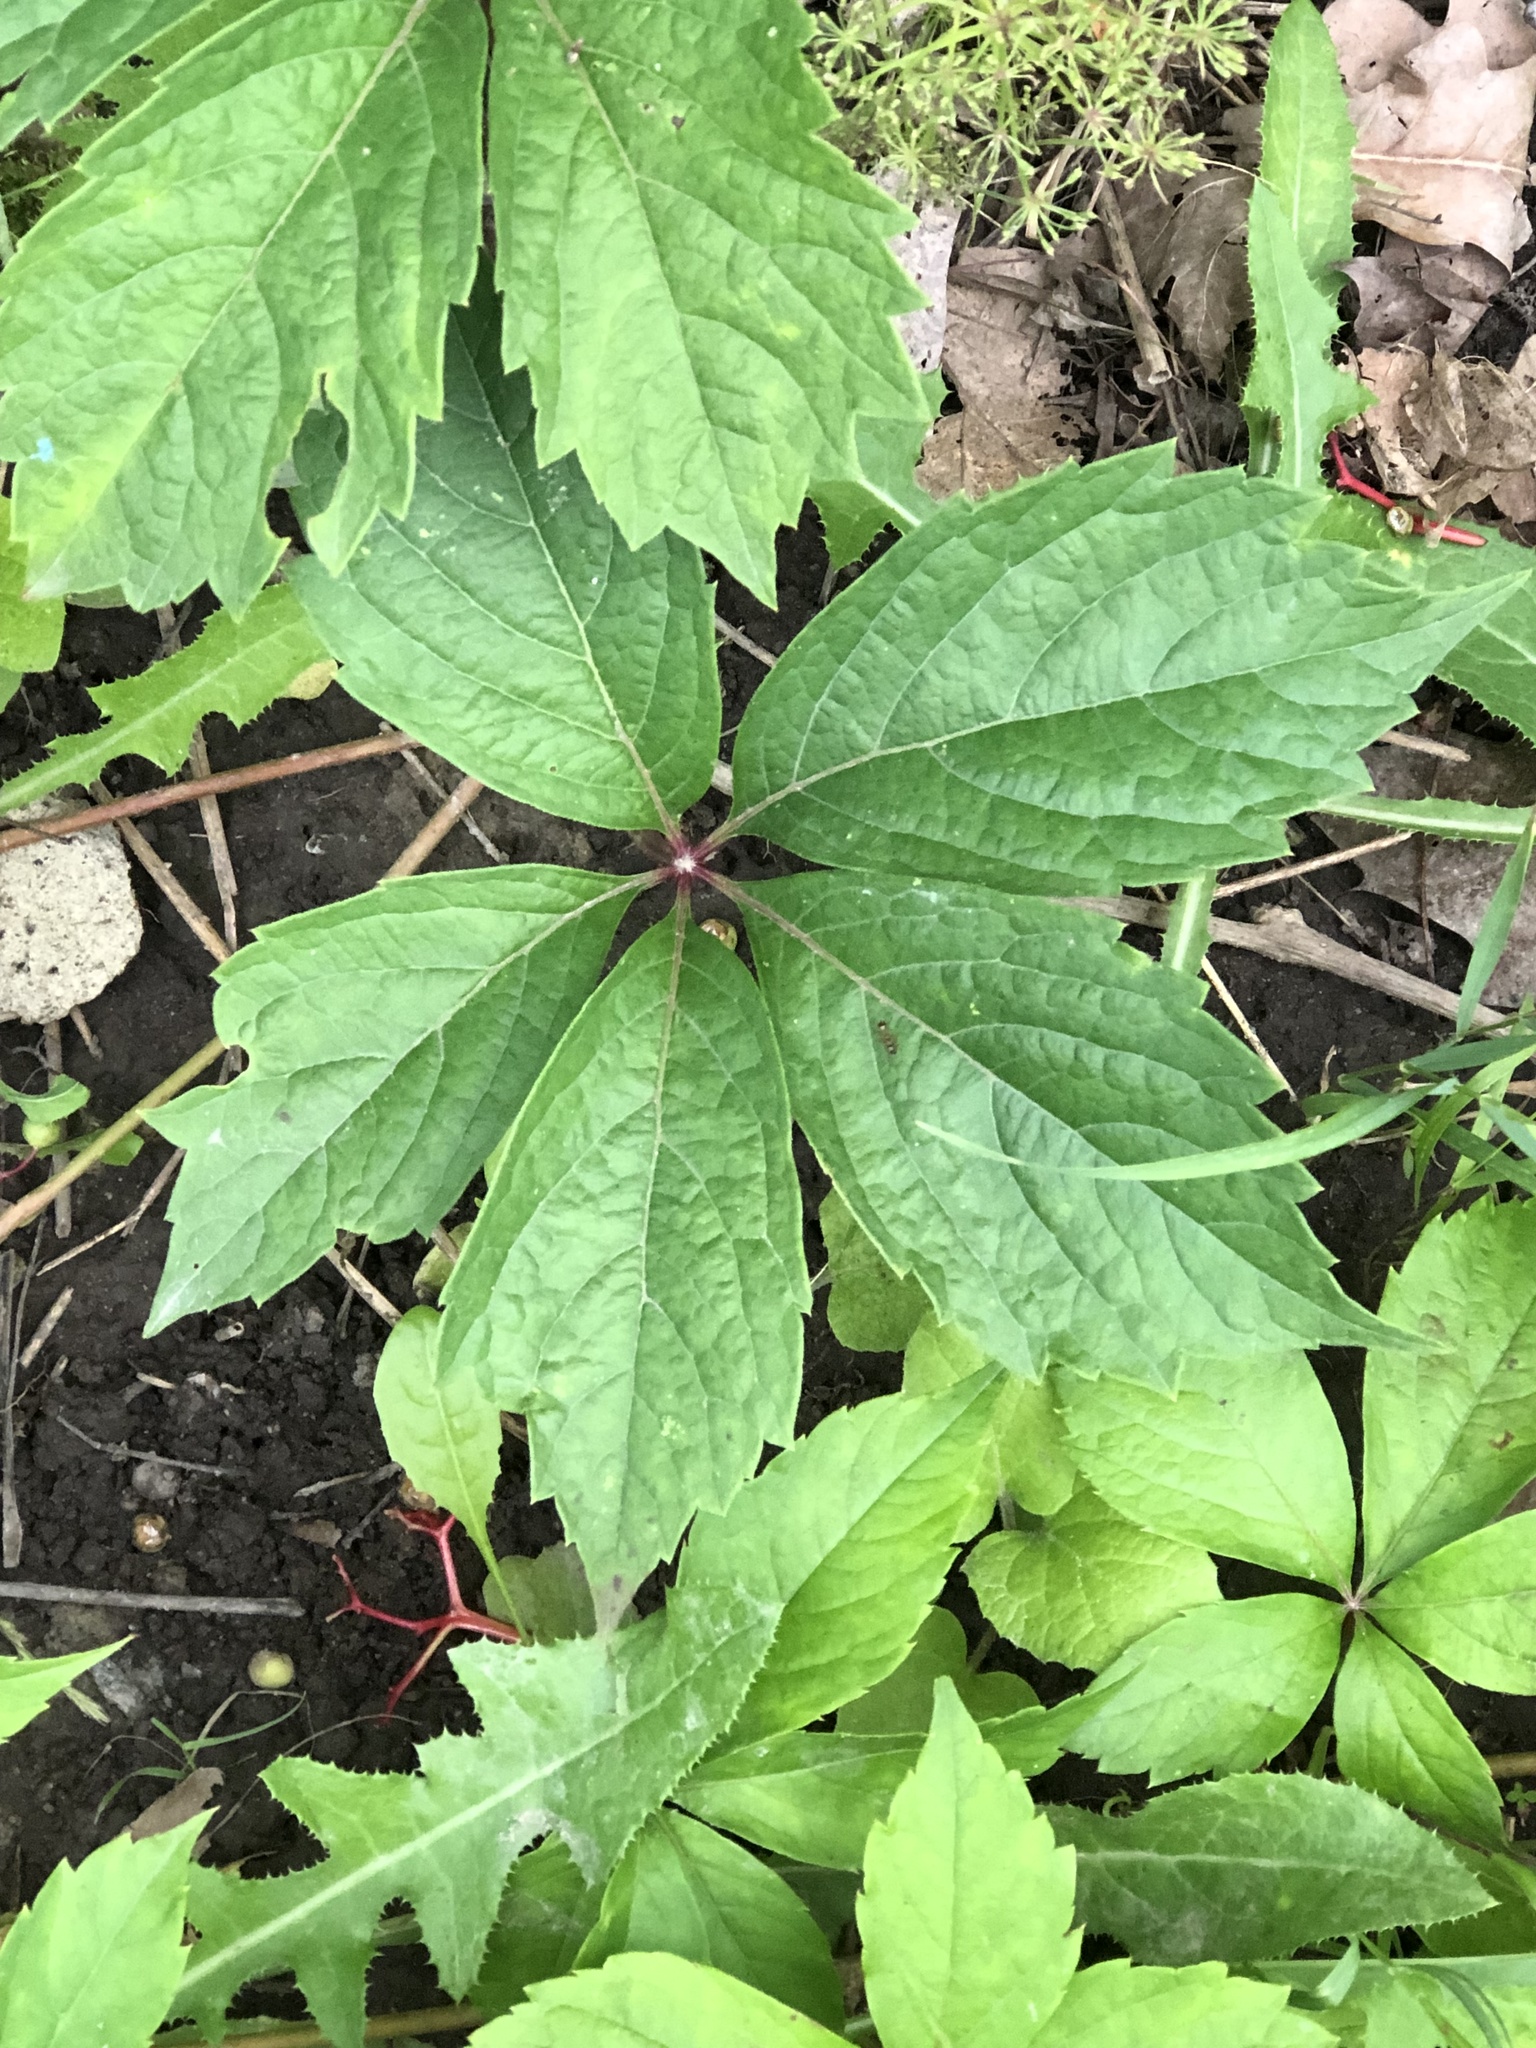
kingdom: Plantae
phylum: Tracheophyta
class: Magnoliopsida
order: Vitales
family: Vitaceae
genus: Parthenocissus
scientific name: Parthenocissus inserta
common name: False virginia-creeper
